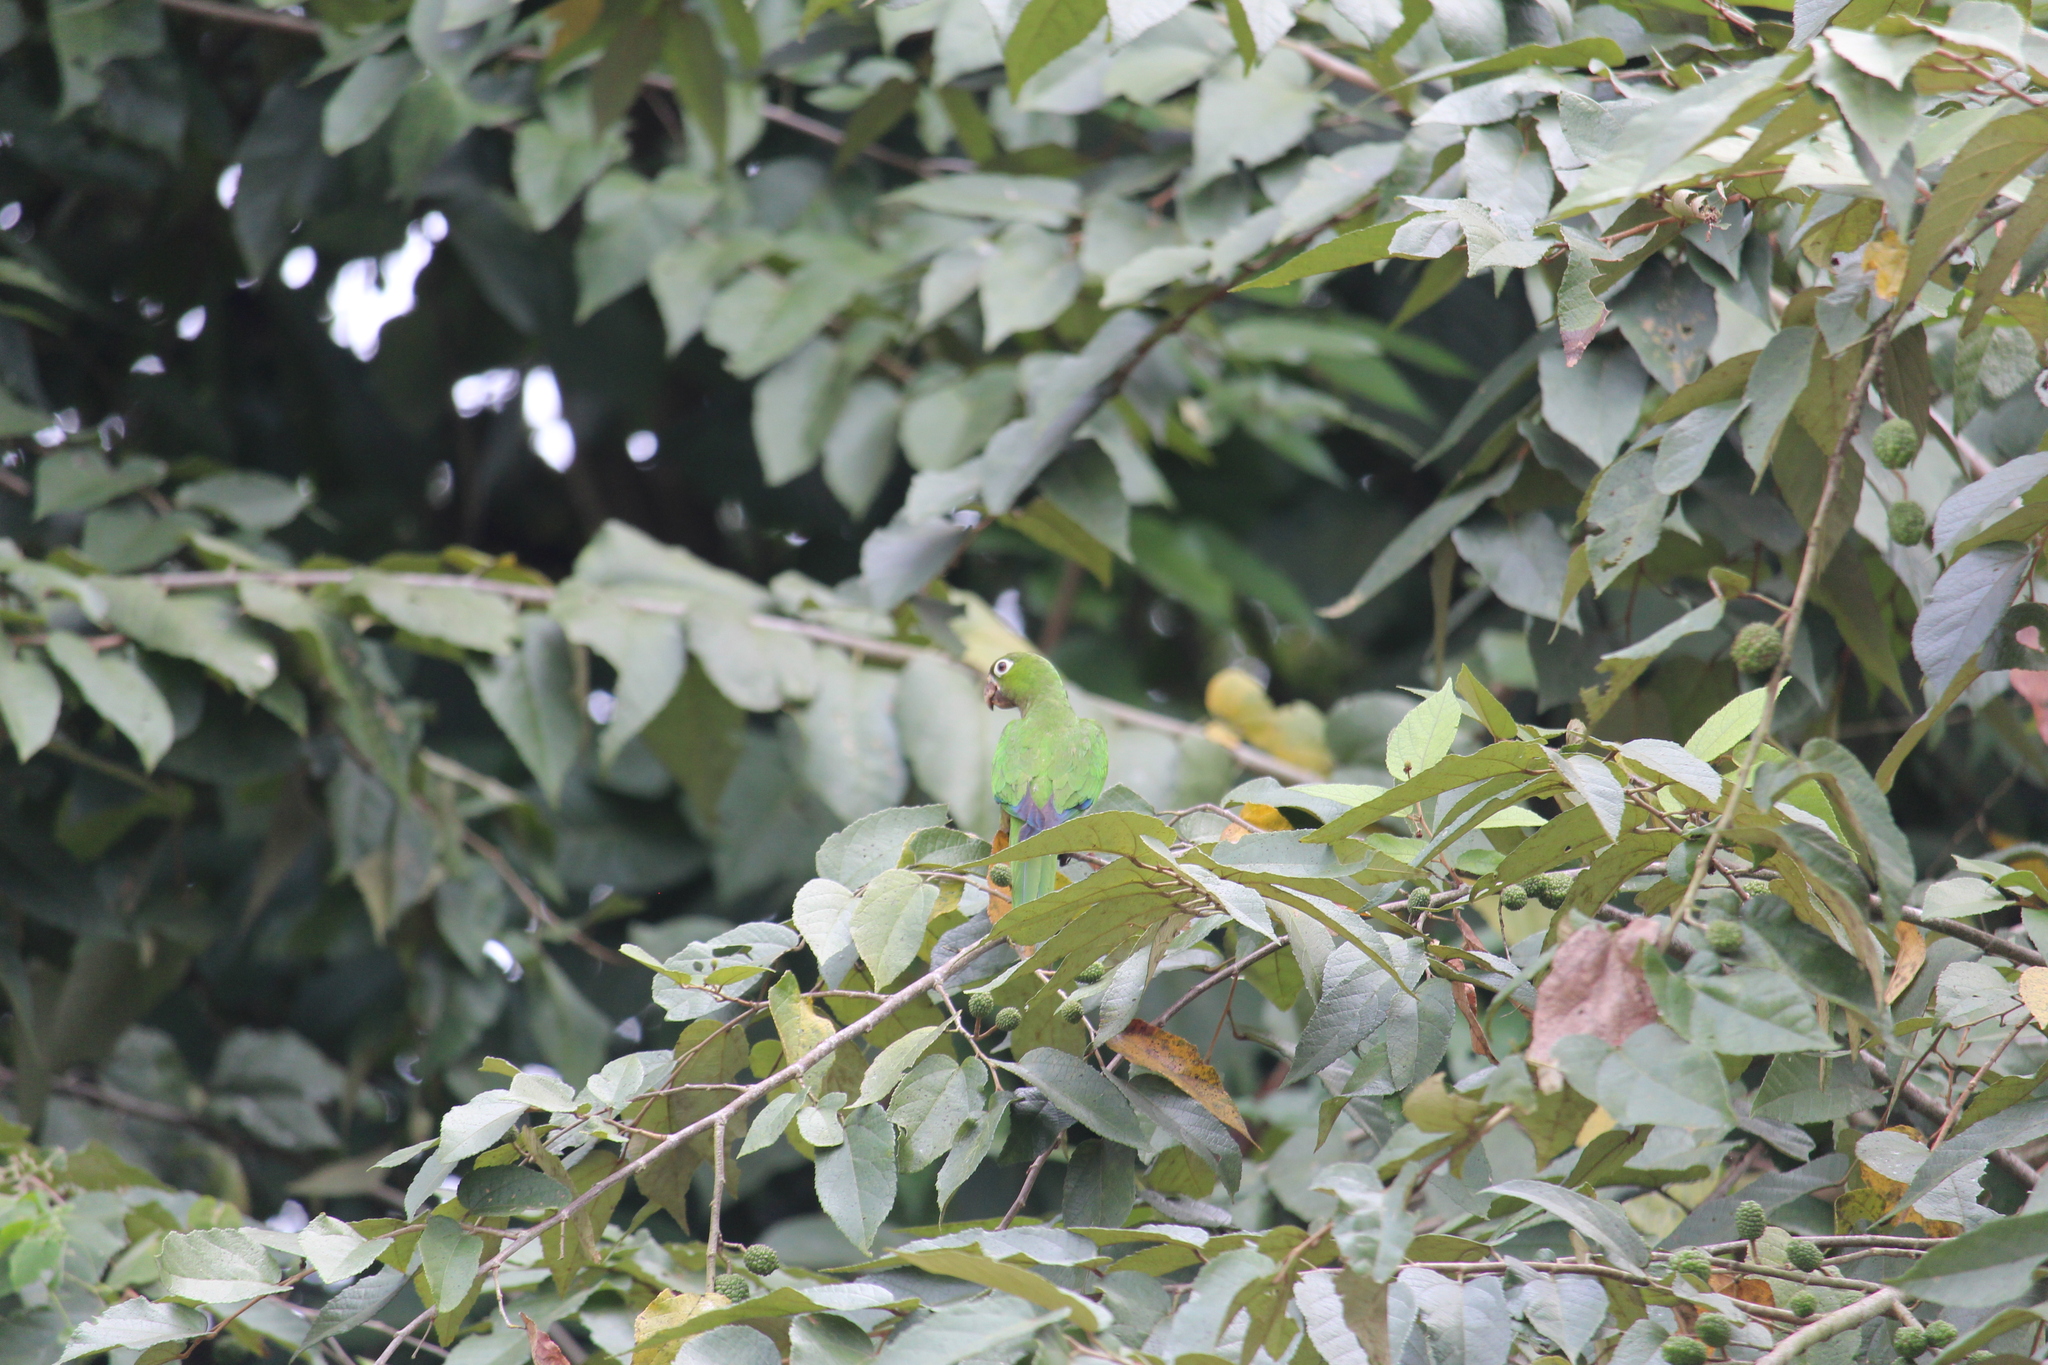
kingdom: Animalia
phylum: Chordata
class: Aves
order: Psittaciformes
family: Psittacidae
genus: Aratinga
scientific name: Aratinga nana
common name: Olive-throated parakeet
